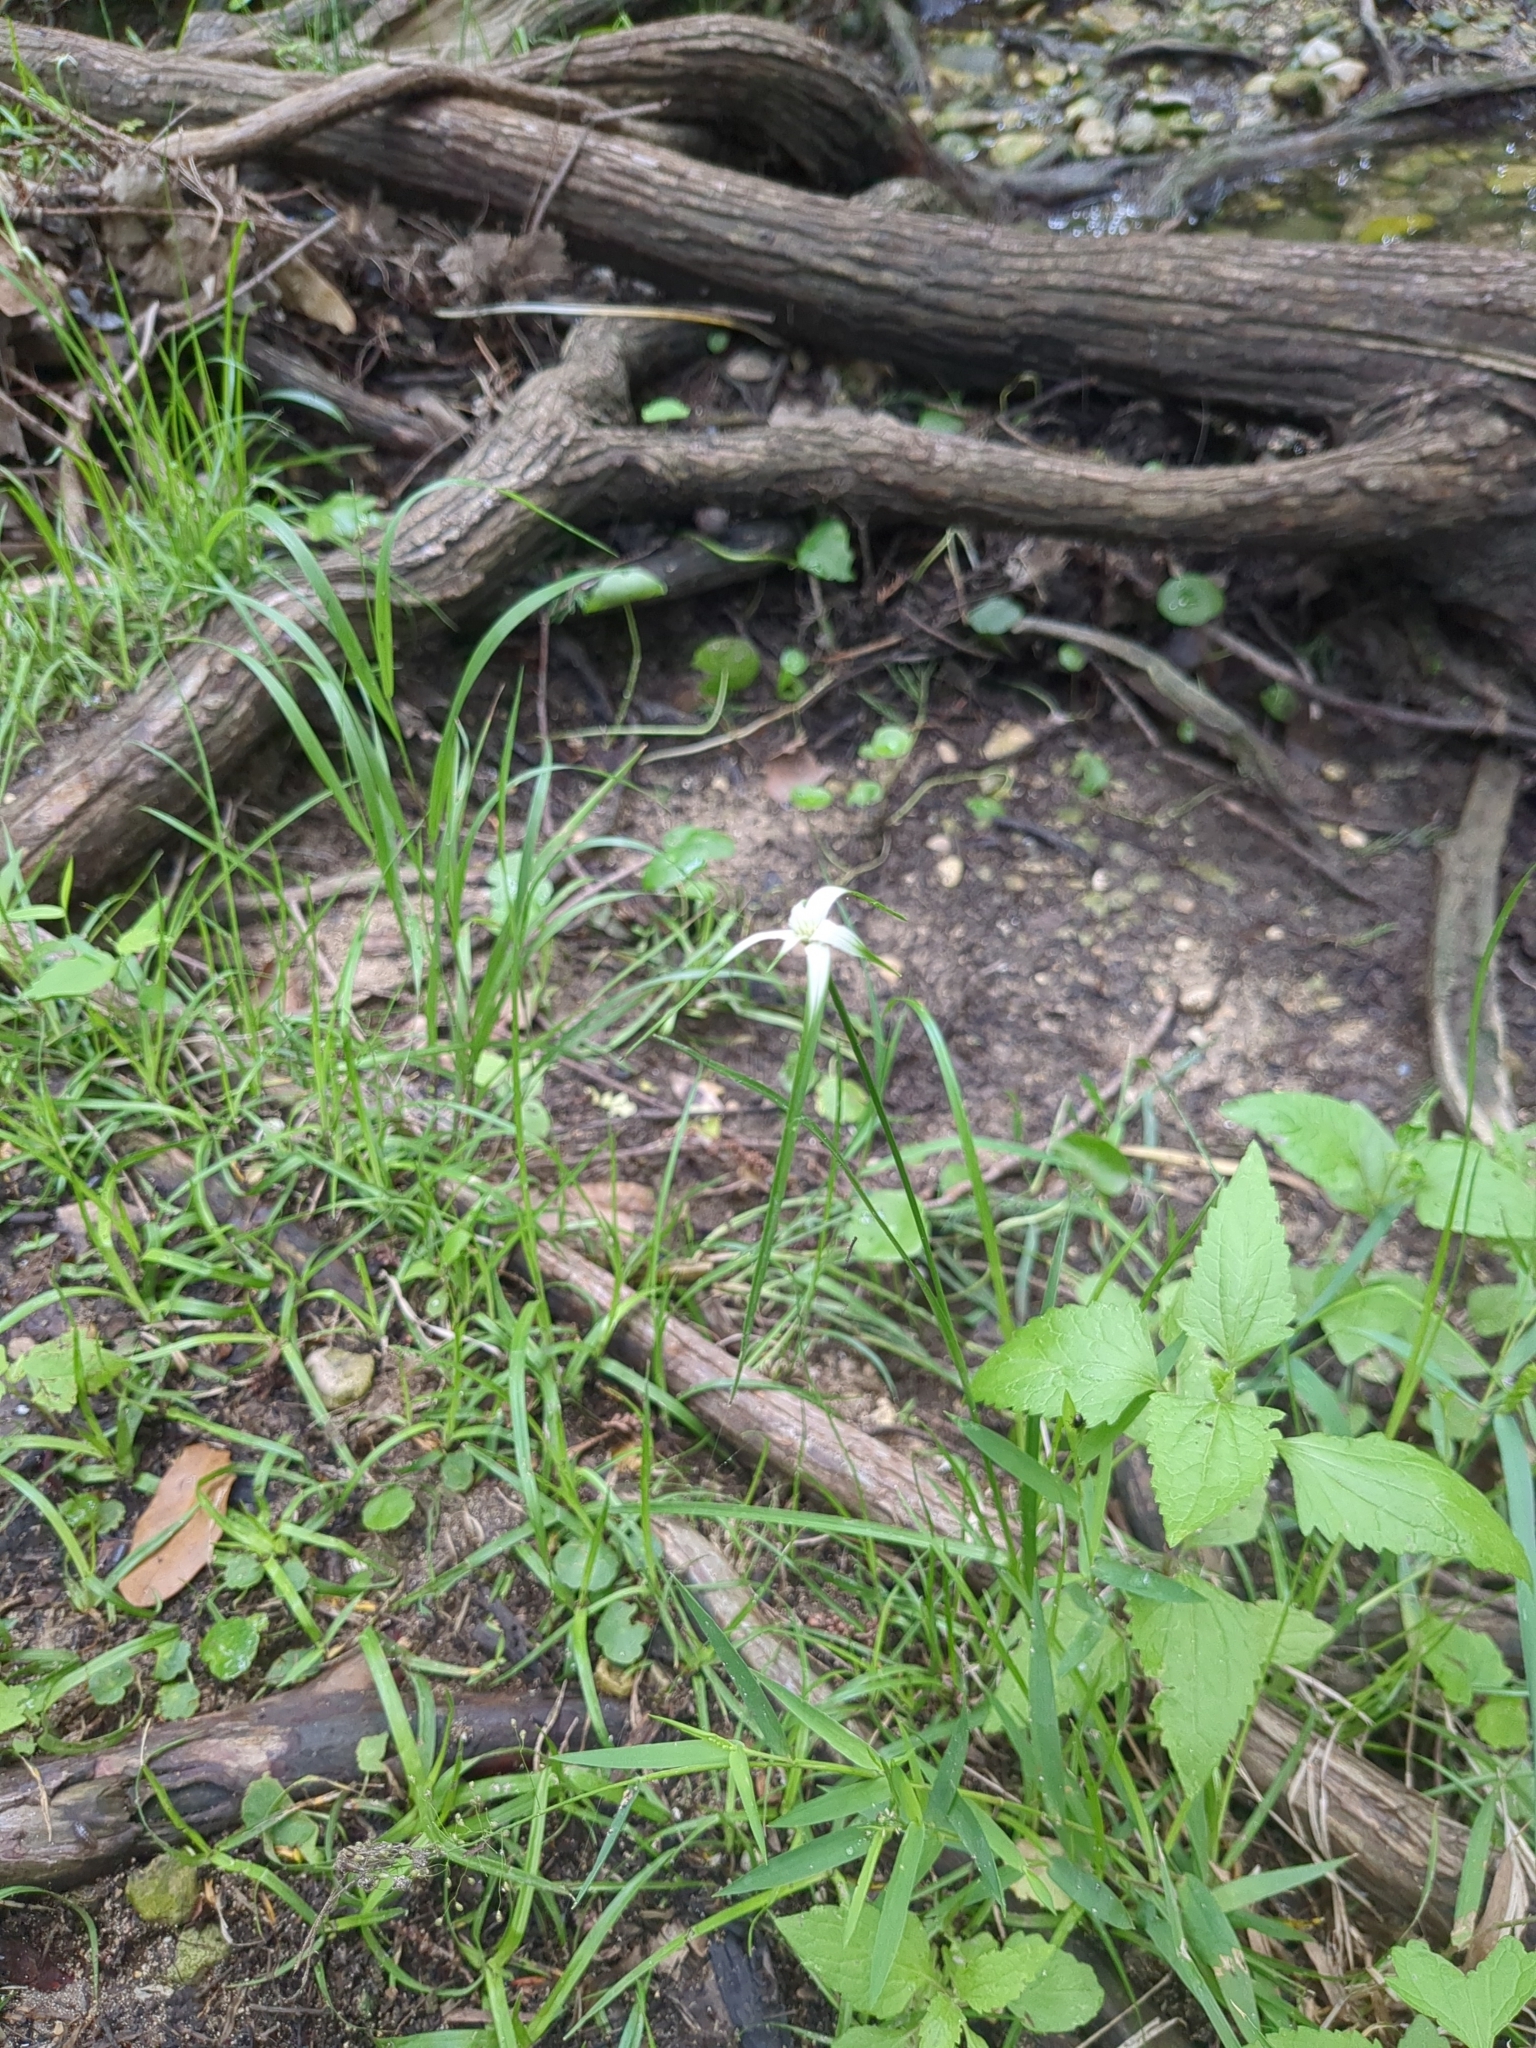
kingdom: Plantae
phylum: Tracheophyta
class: Liliopsida
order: Poales
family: Cyperaceae
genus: Rhynchospora
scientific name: Rhynchospora colorata
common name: Star sedge
